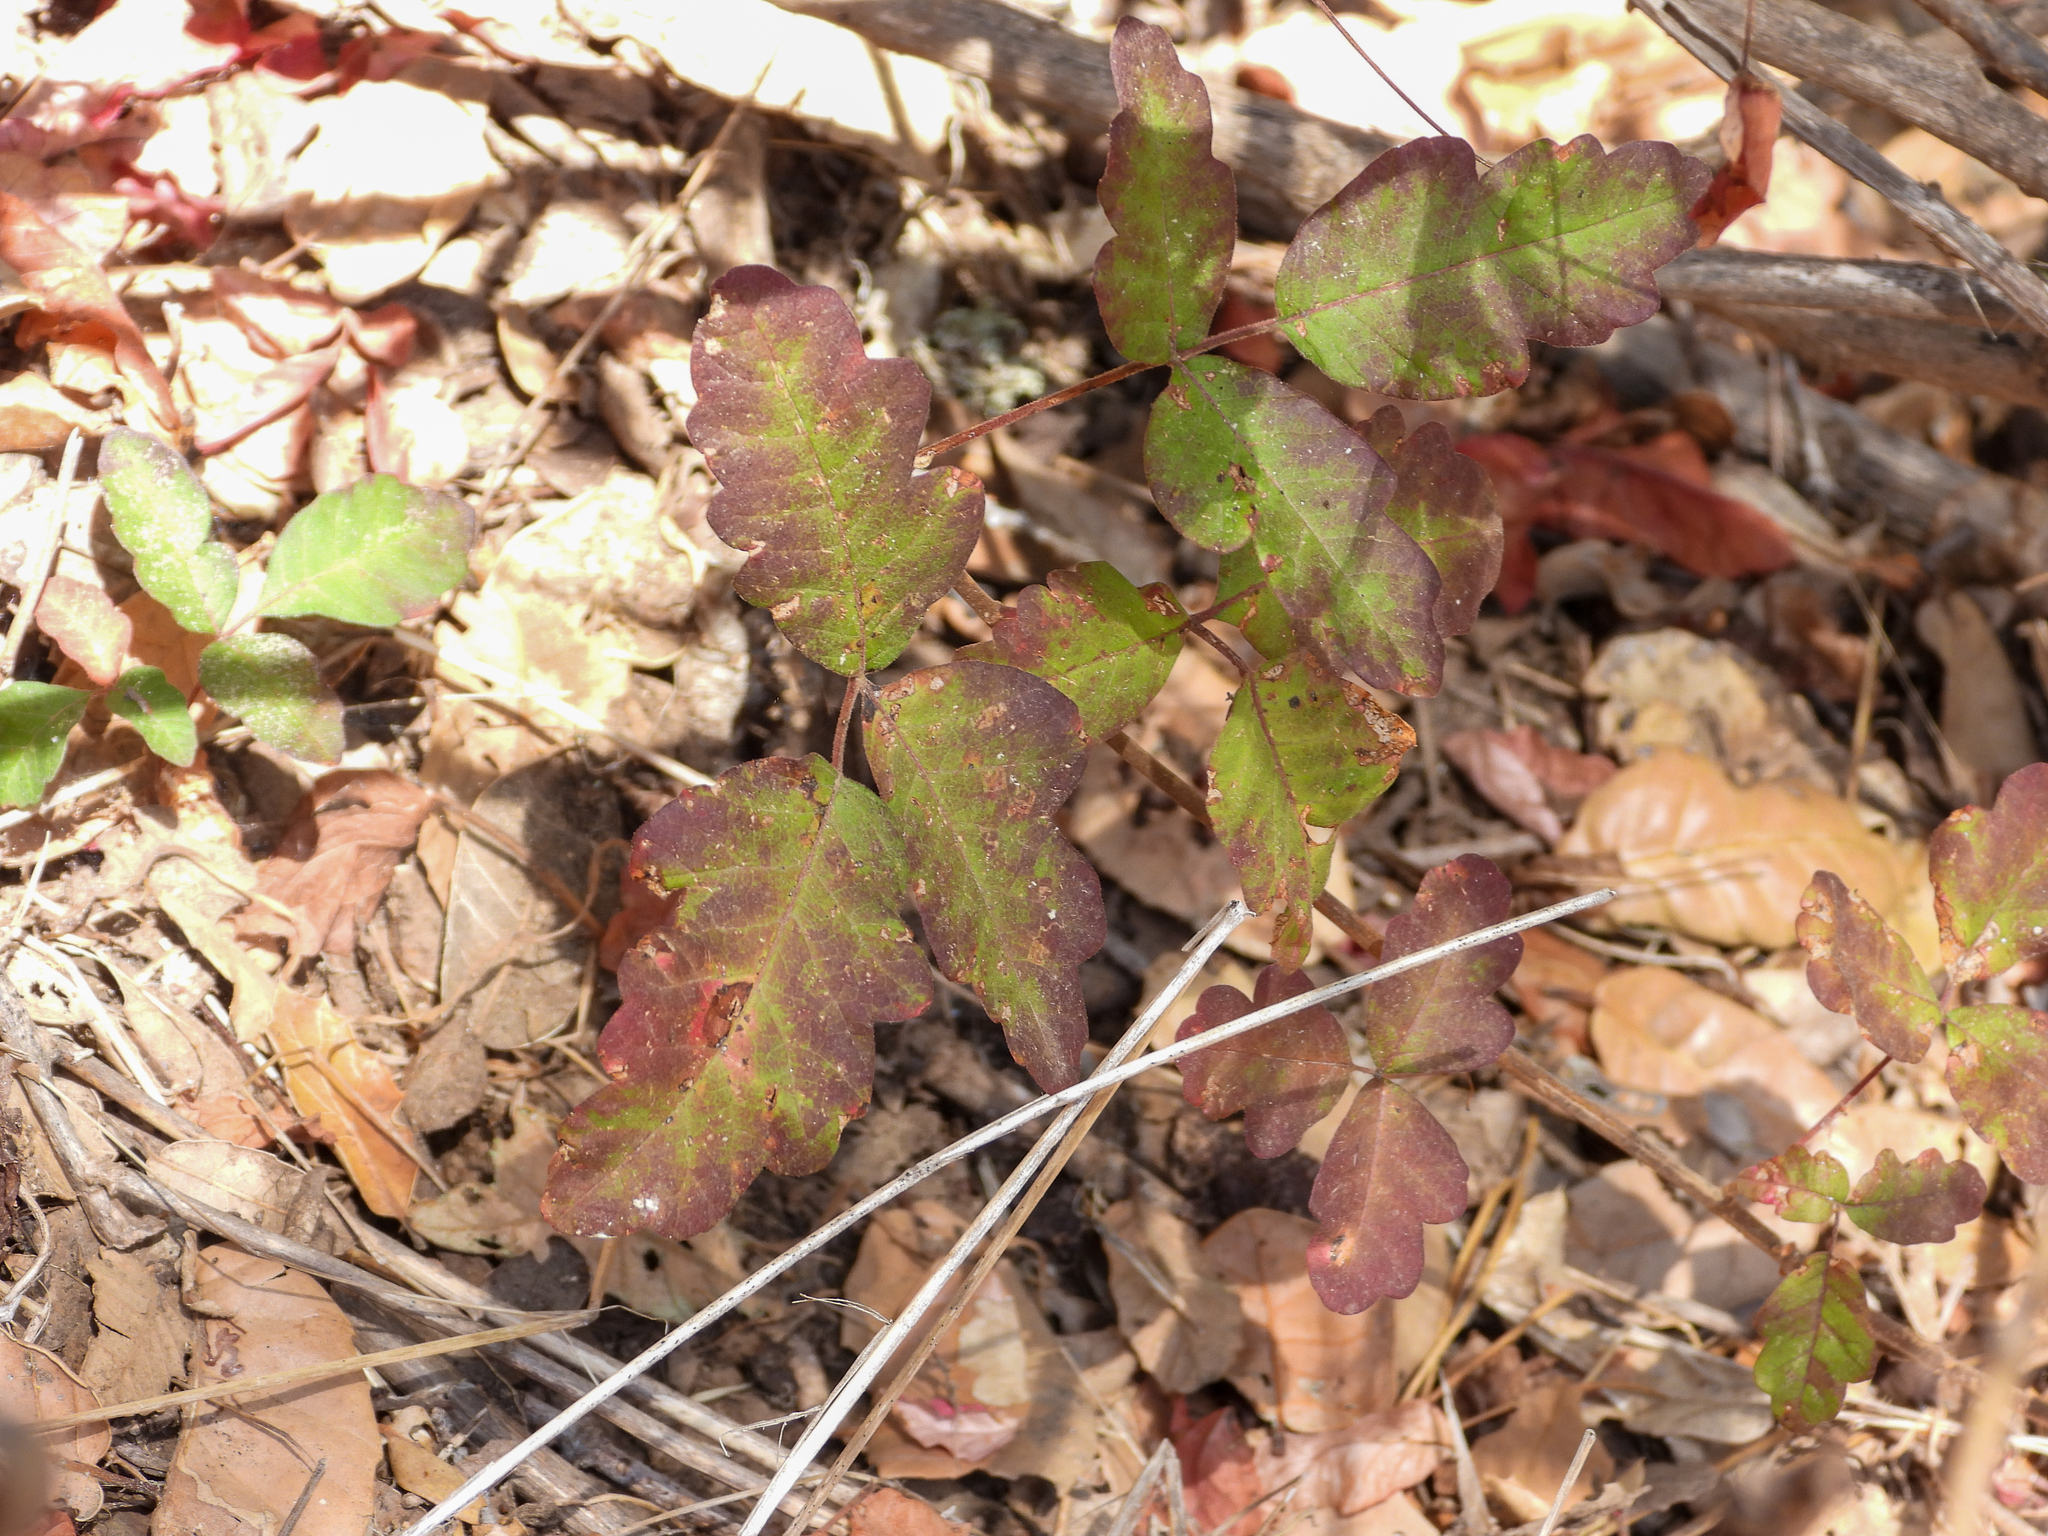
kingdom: Plantae
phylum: Tracheophyta
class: Magnoliopsida
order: Sapindales
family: Anacardiaceae
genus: Toxicodendron
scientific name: Toxicodendron diversilobum
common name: Pacific poison-oak
